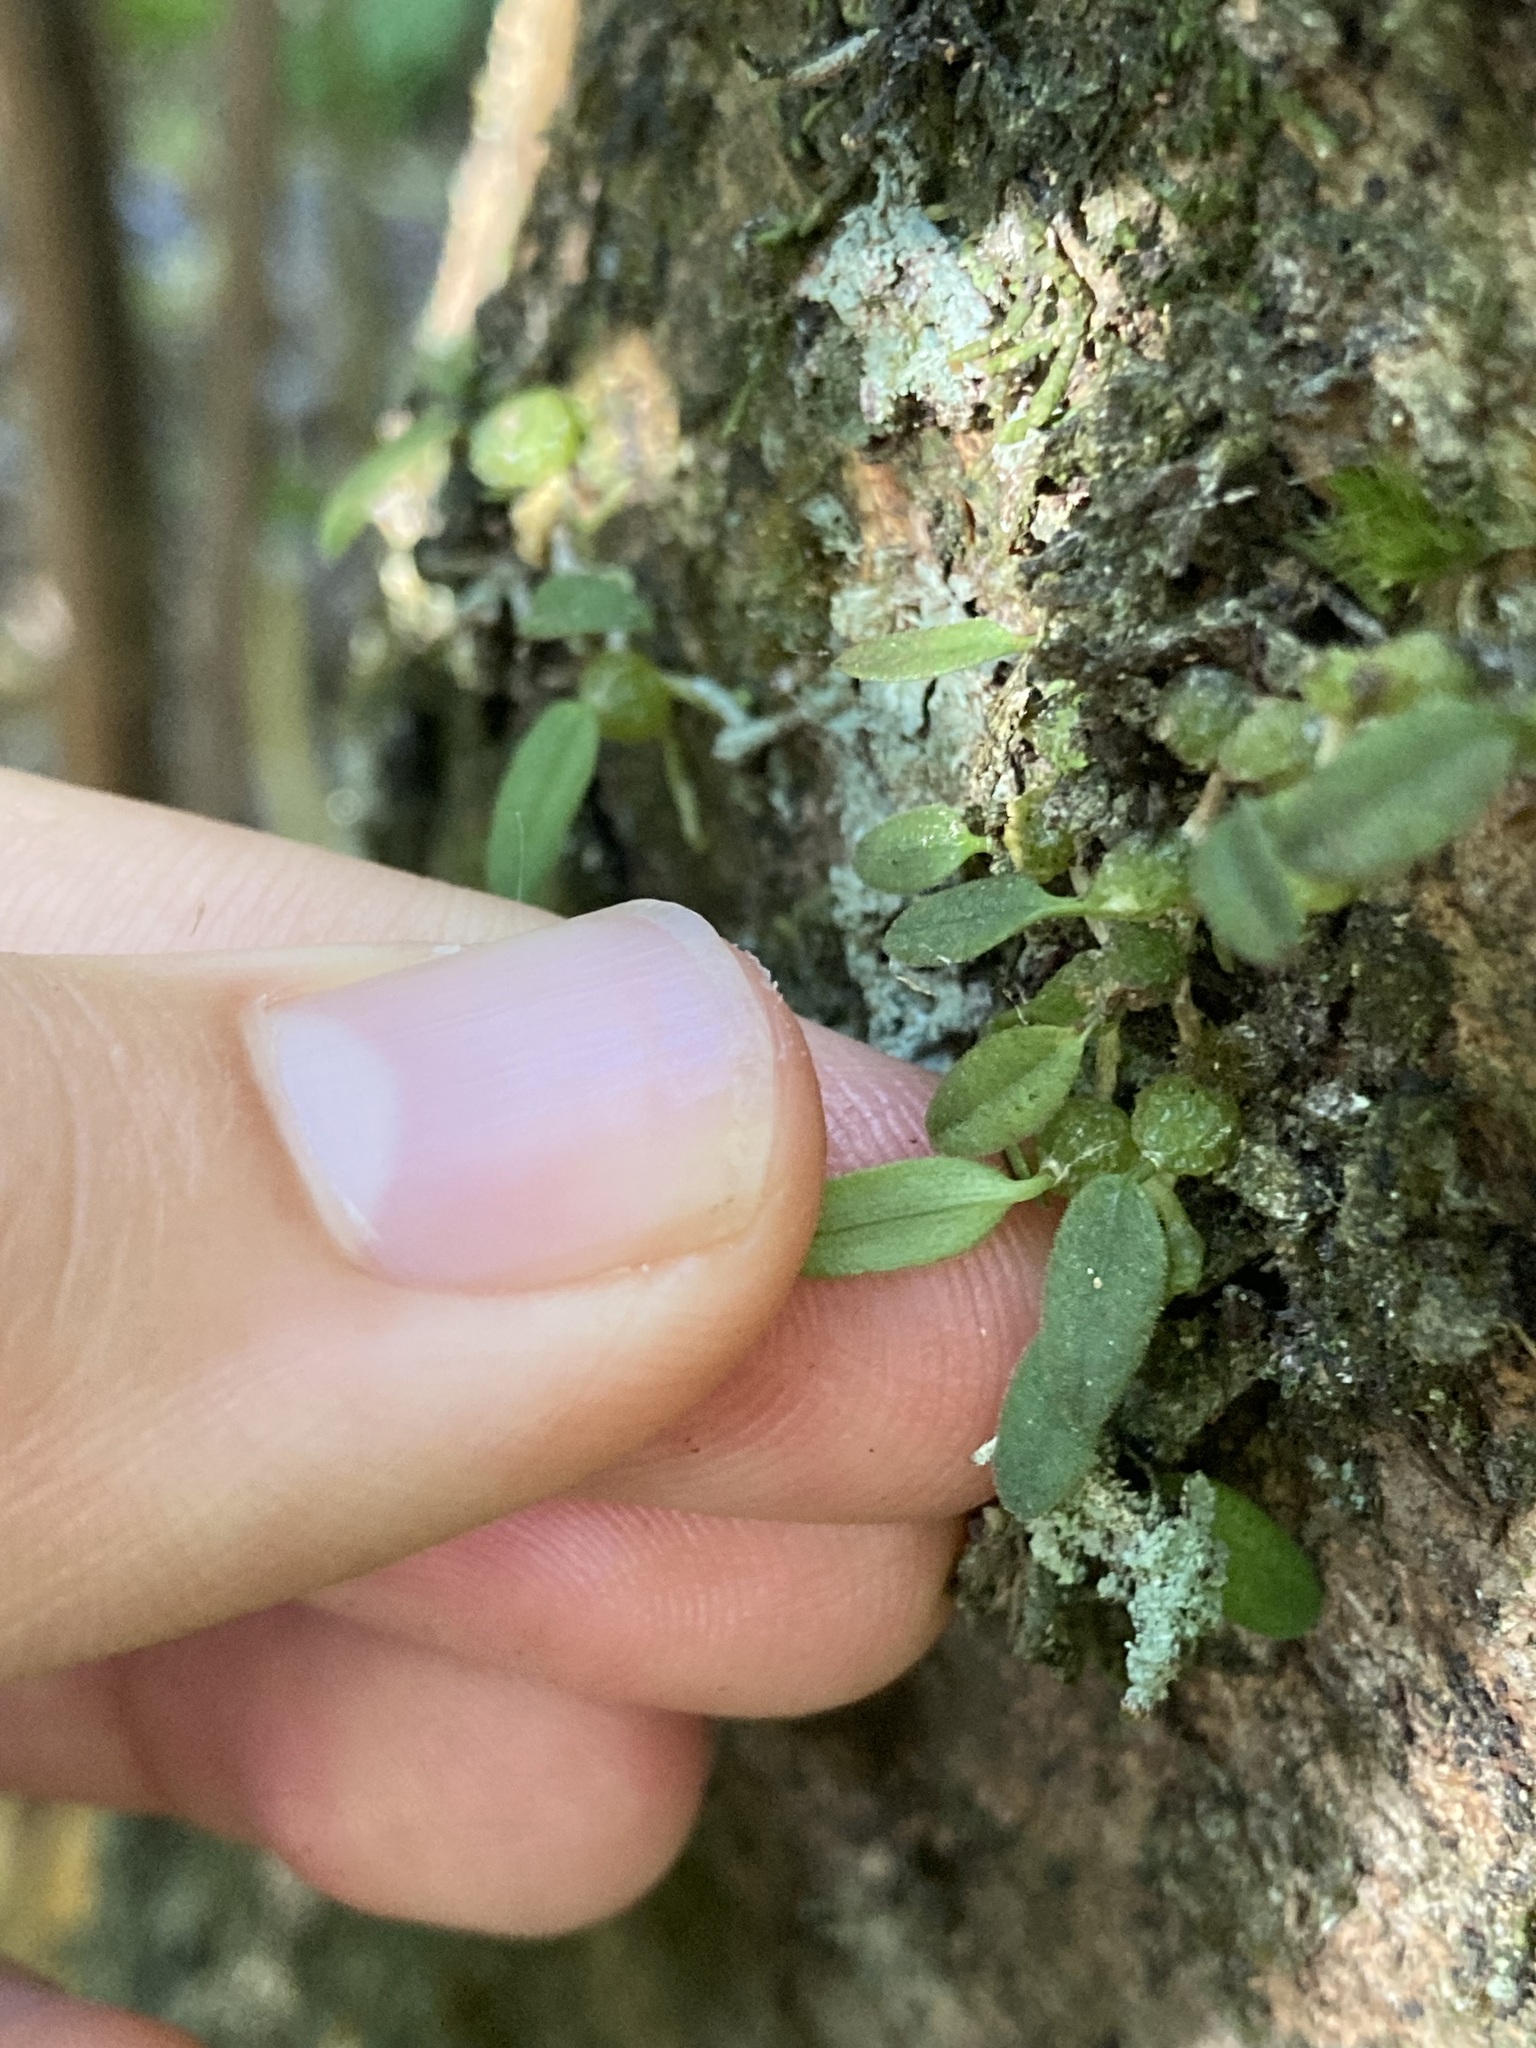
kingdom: Plantae
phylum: Tracheophyta
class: Liliopsida
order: Asparagales
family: Orchidaceae
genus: Bulbophyllum
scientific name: Bulbophyllum pygmaeum
